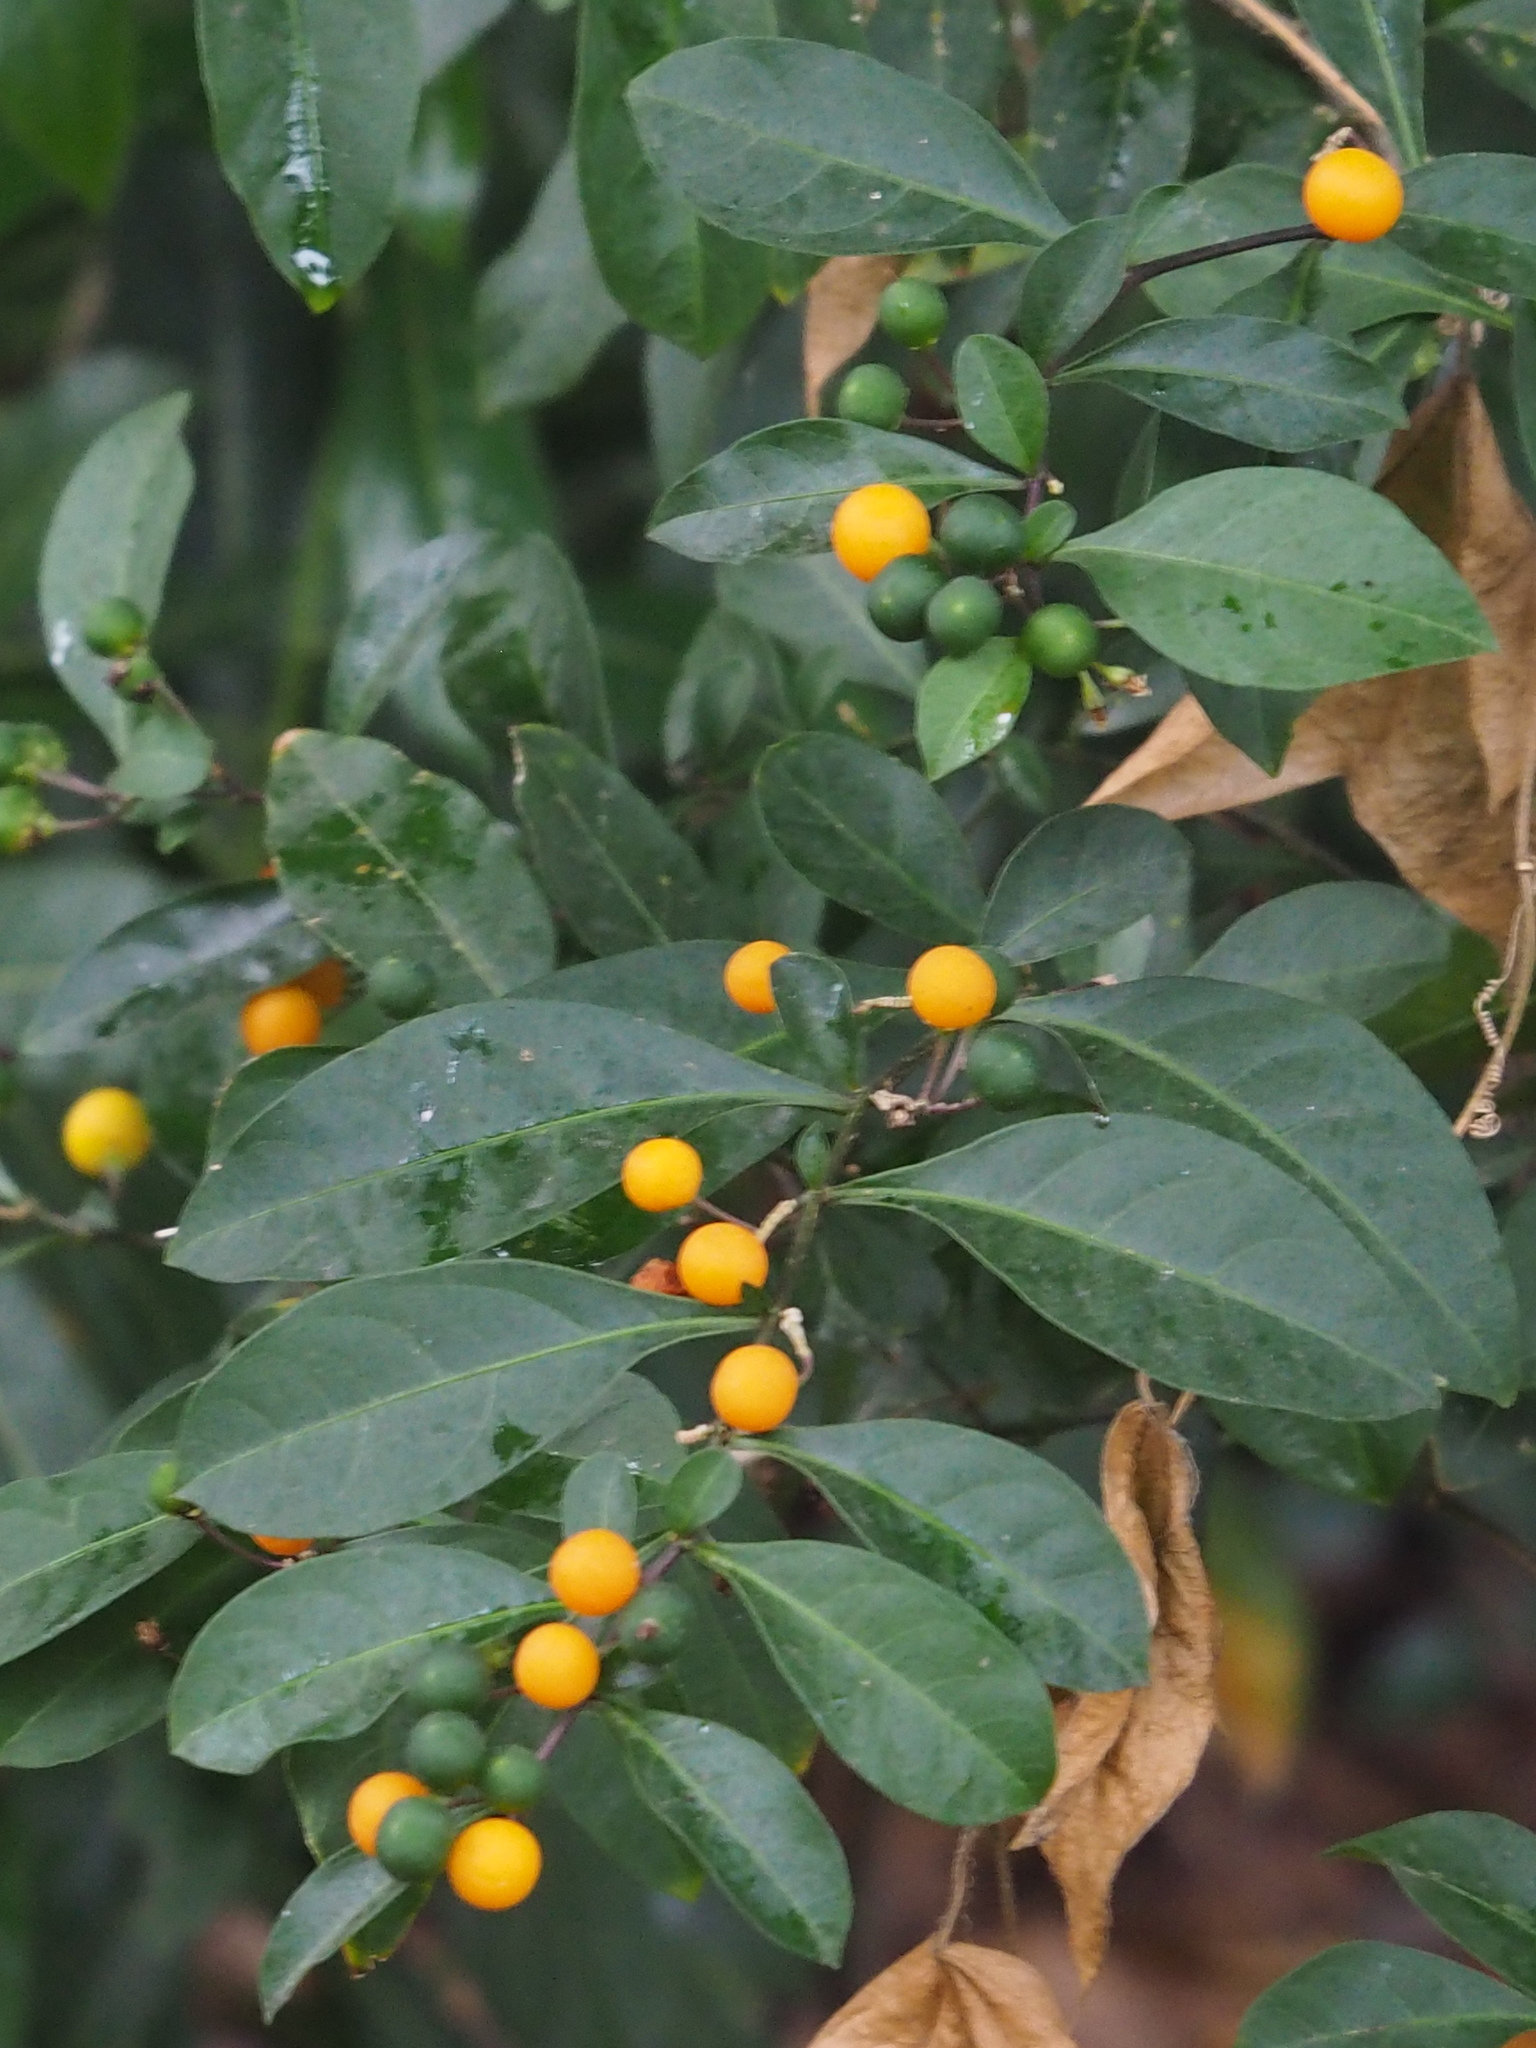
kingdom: Plantae
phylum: Tracheophyta
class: Magnoliopsida
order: Solanales
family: Solanaceae
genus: Solanum
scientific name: Solanum diphyllum
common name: Twoleaf nightshade
